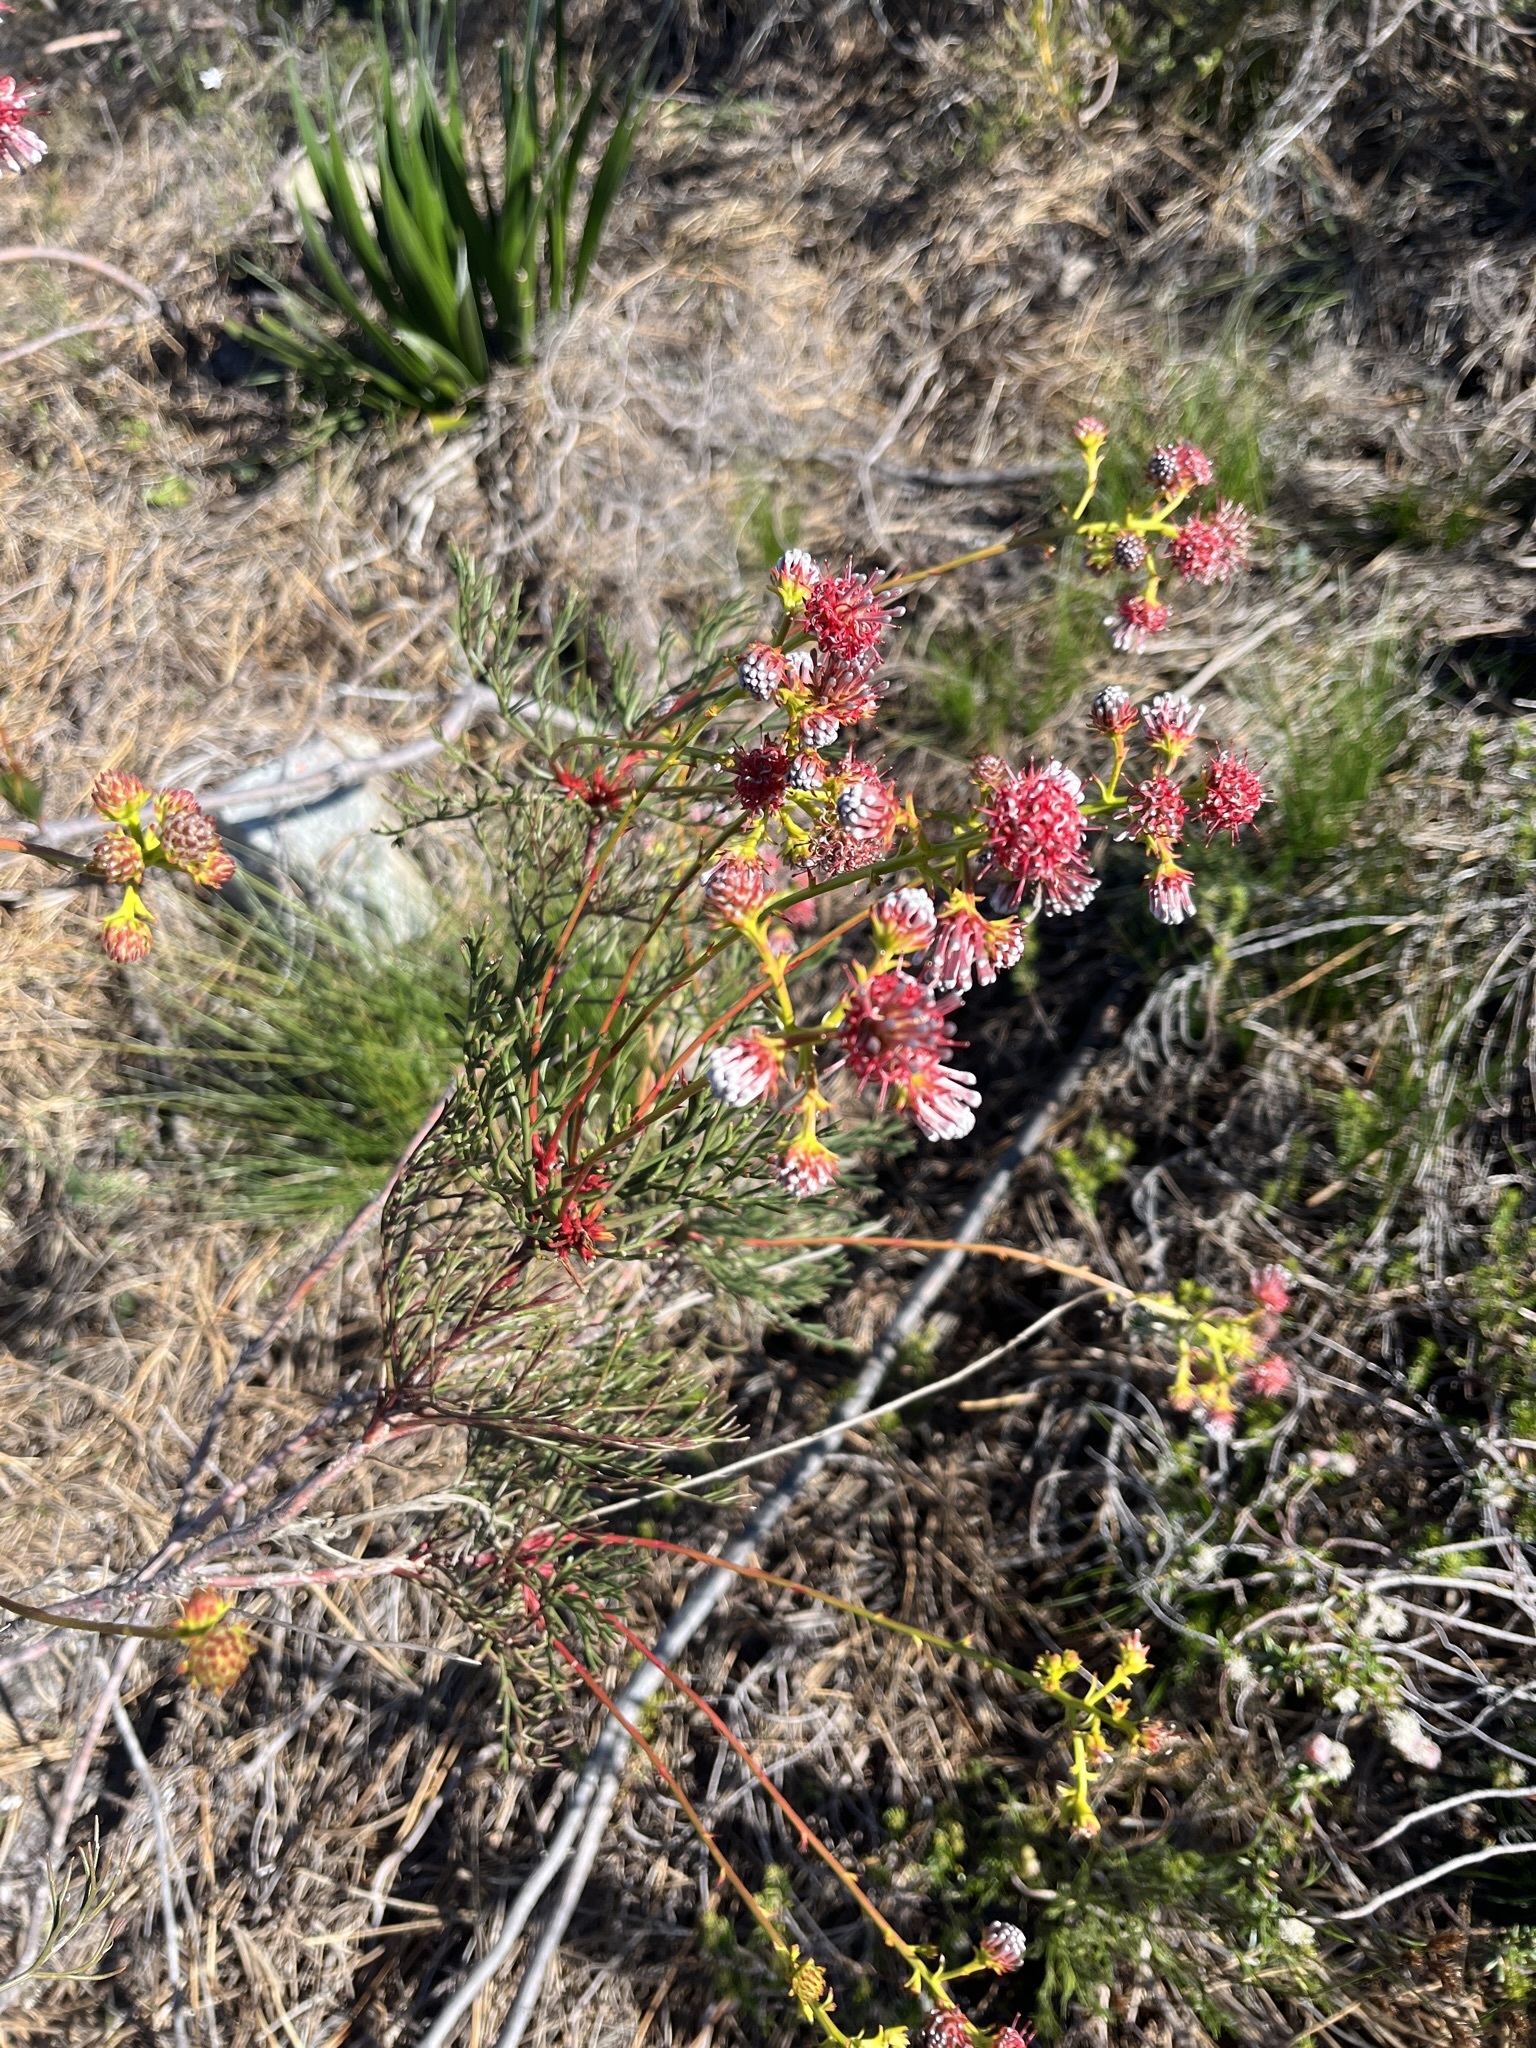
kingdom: Plantae
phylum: Tracheophyta
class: Magnoliopsida
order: Proteales
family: Proteaceae
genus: Serruria
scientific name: Serruria elongata
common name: Long-stalk spiderhead
